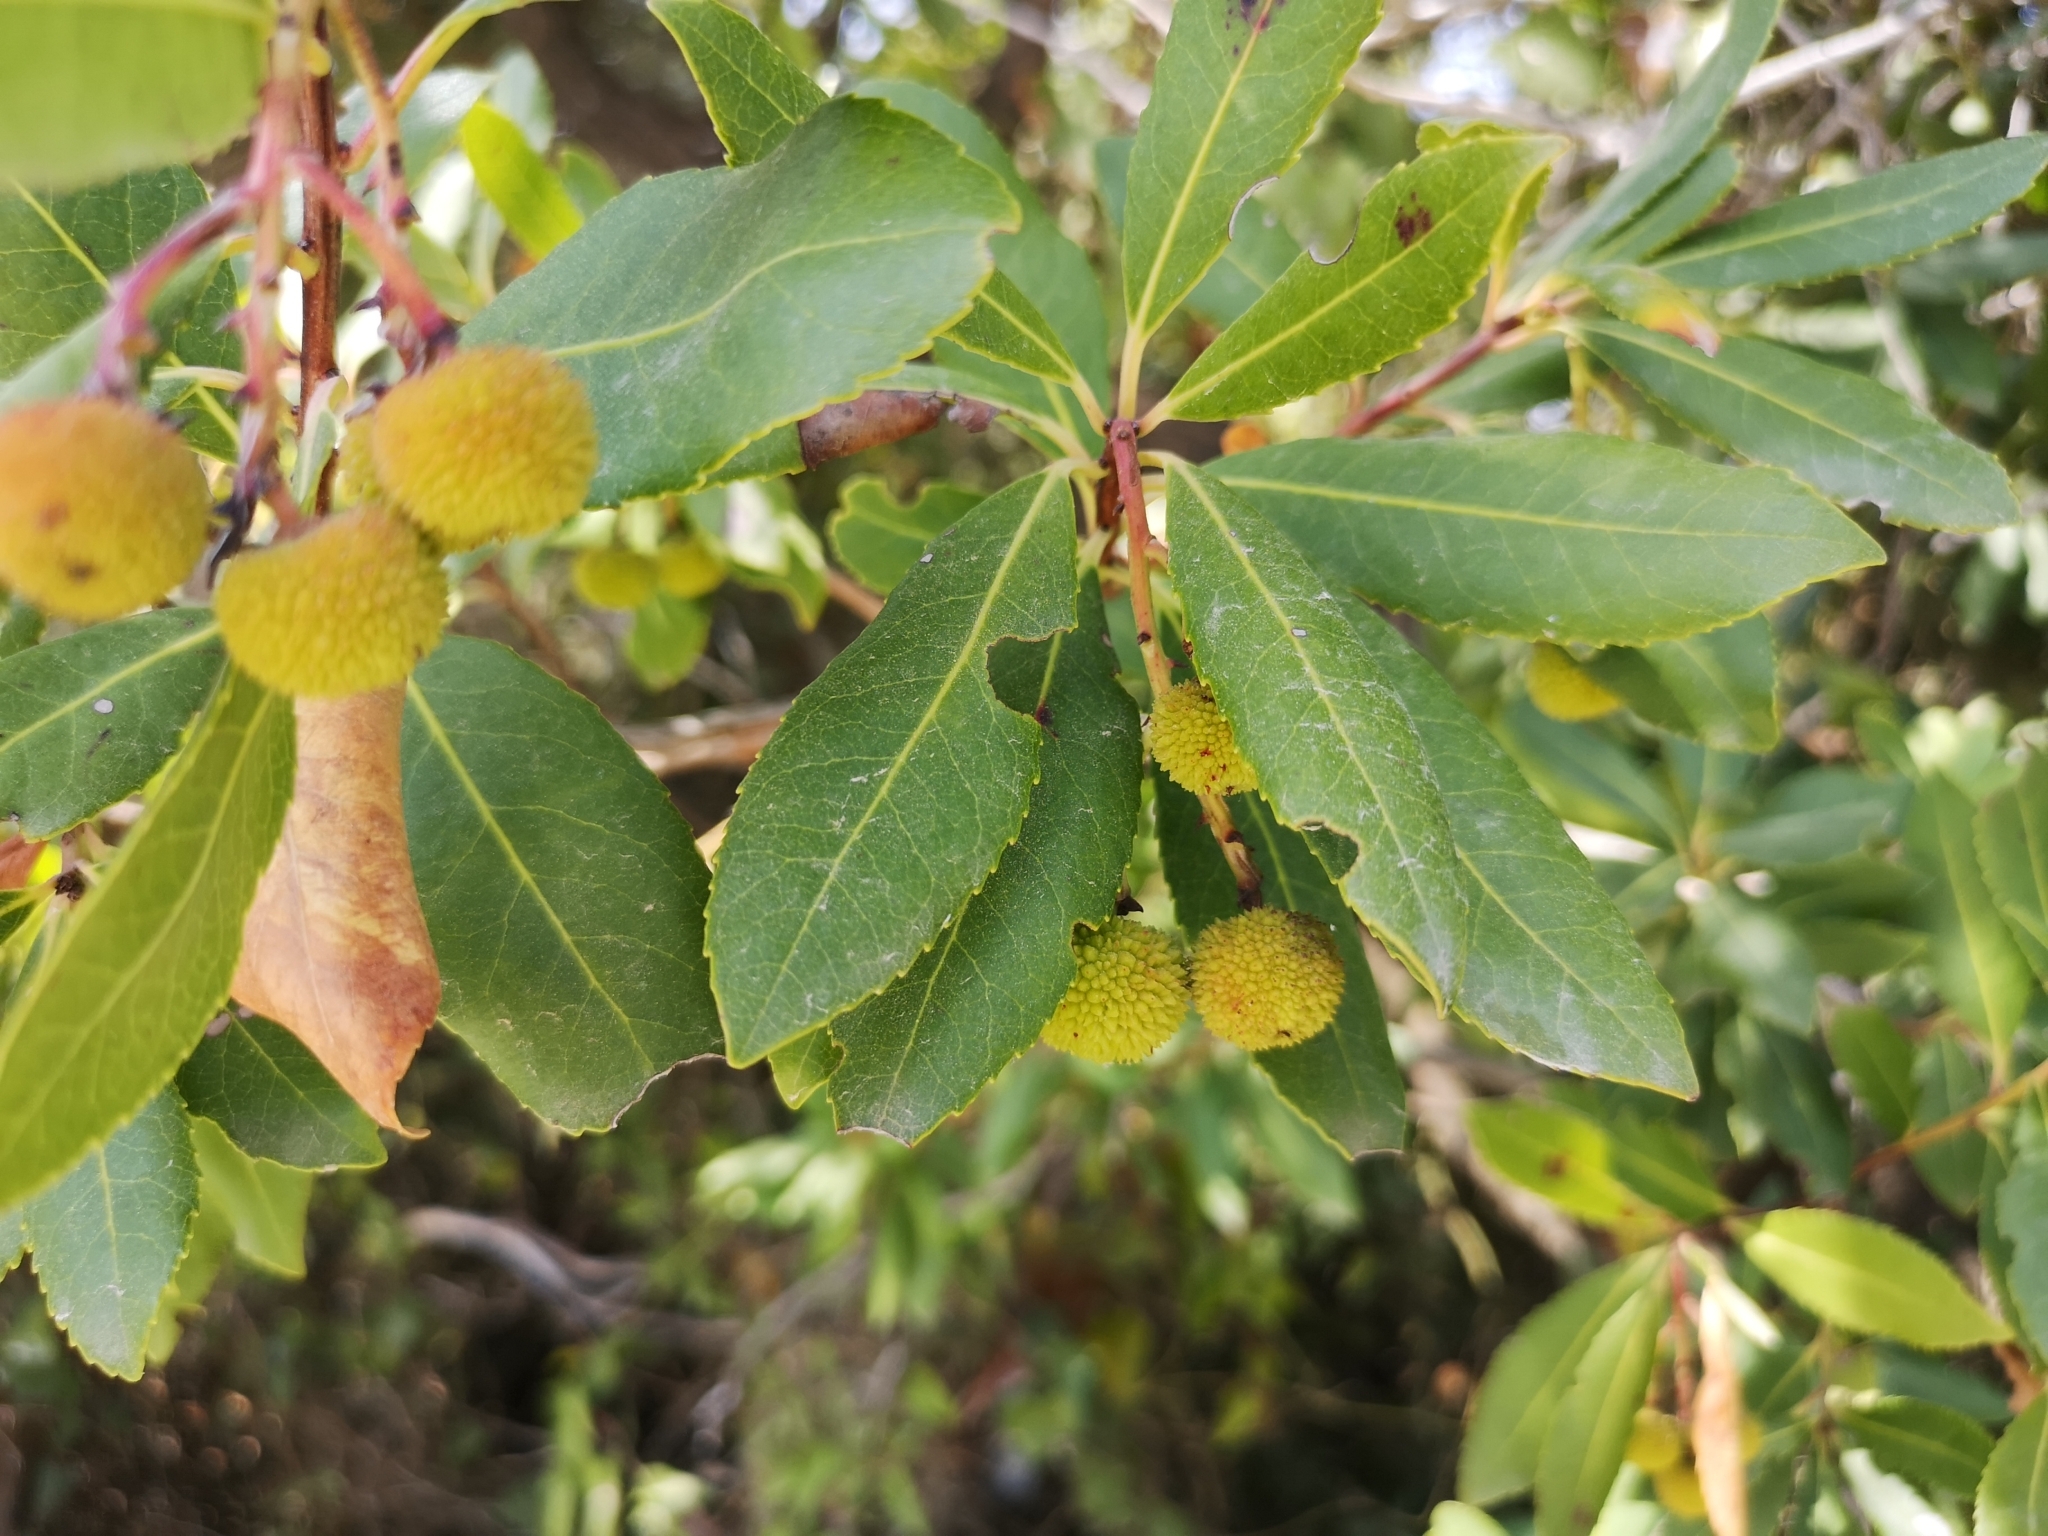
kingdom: Plantae
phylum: Tracheophyta
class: Magnoliopsida
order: Ericales
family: Ericaceae
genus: Arbutus
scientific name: Arbutus unedo
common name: Strawberry-tree
